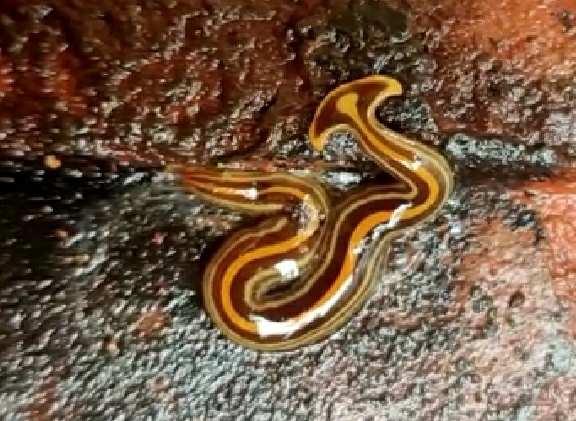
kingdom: Animalia
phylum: Platyhelminthes
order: Tricladida
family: Geoplanidae
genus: Humbertium
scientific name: Humbertium proserpina
